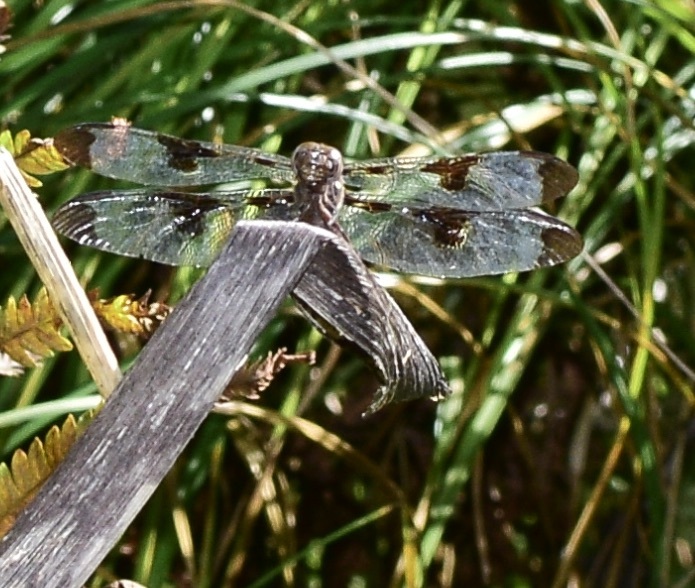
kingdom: Animalia
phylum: Arthropoda
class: Insecta
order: Odonata
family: Libellulidae
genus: Plathemis
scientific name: Plathemis lydia
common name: Common whitetail
